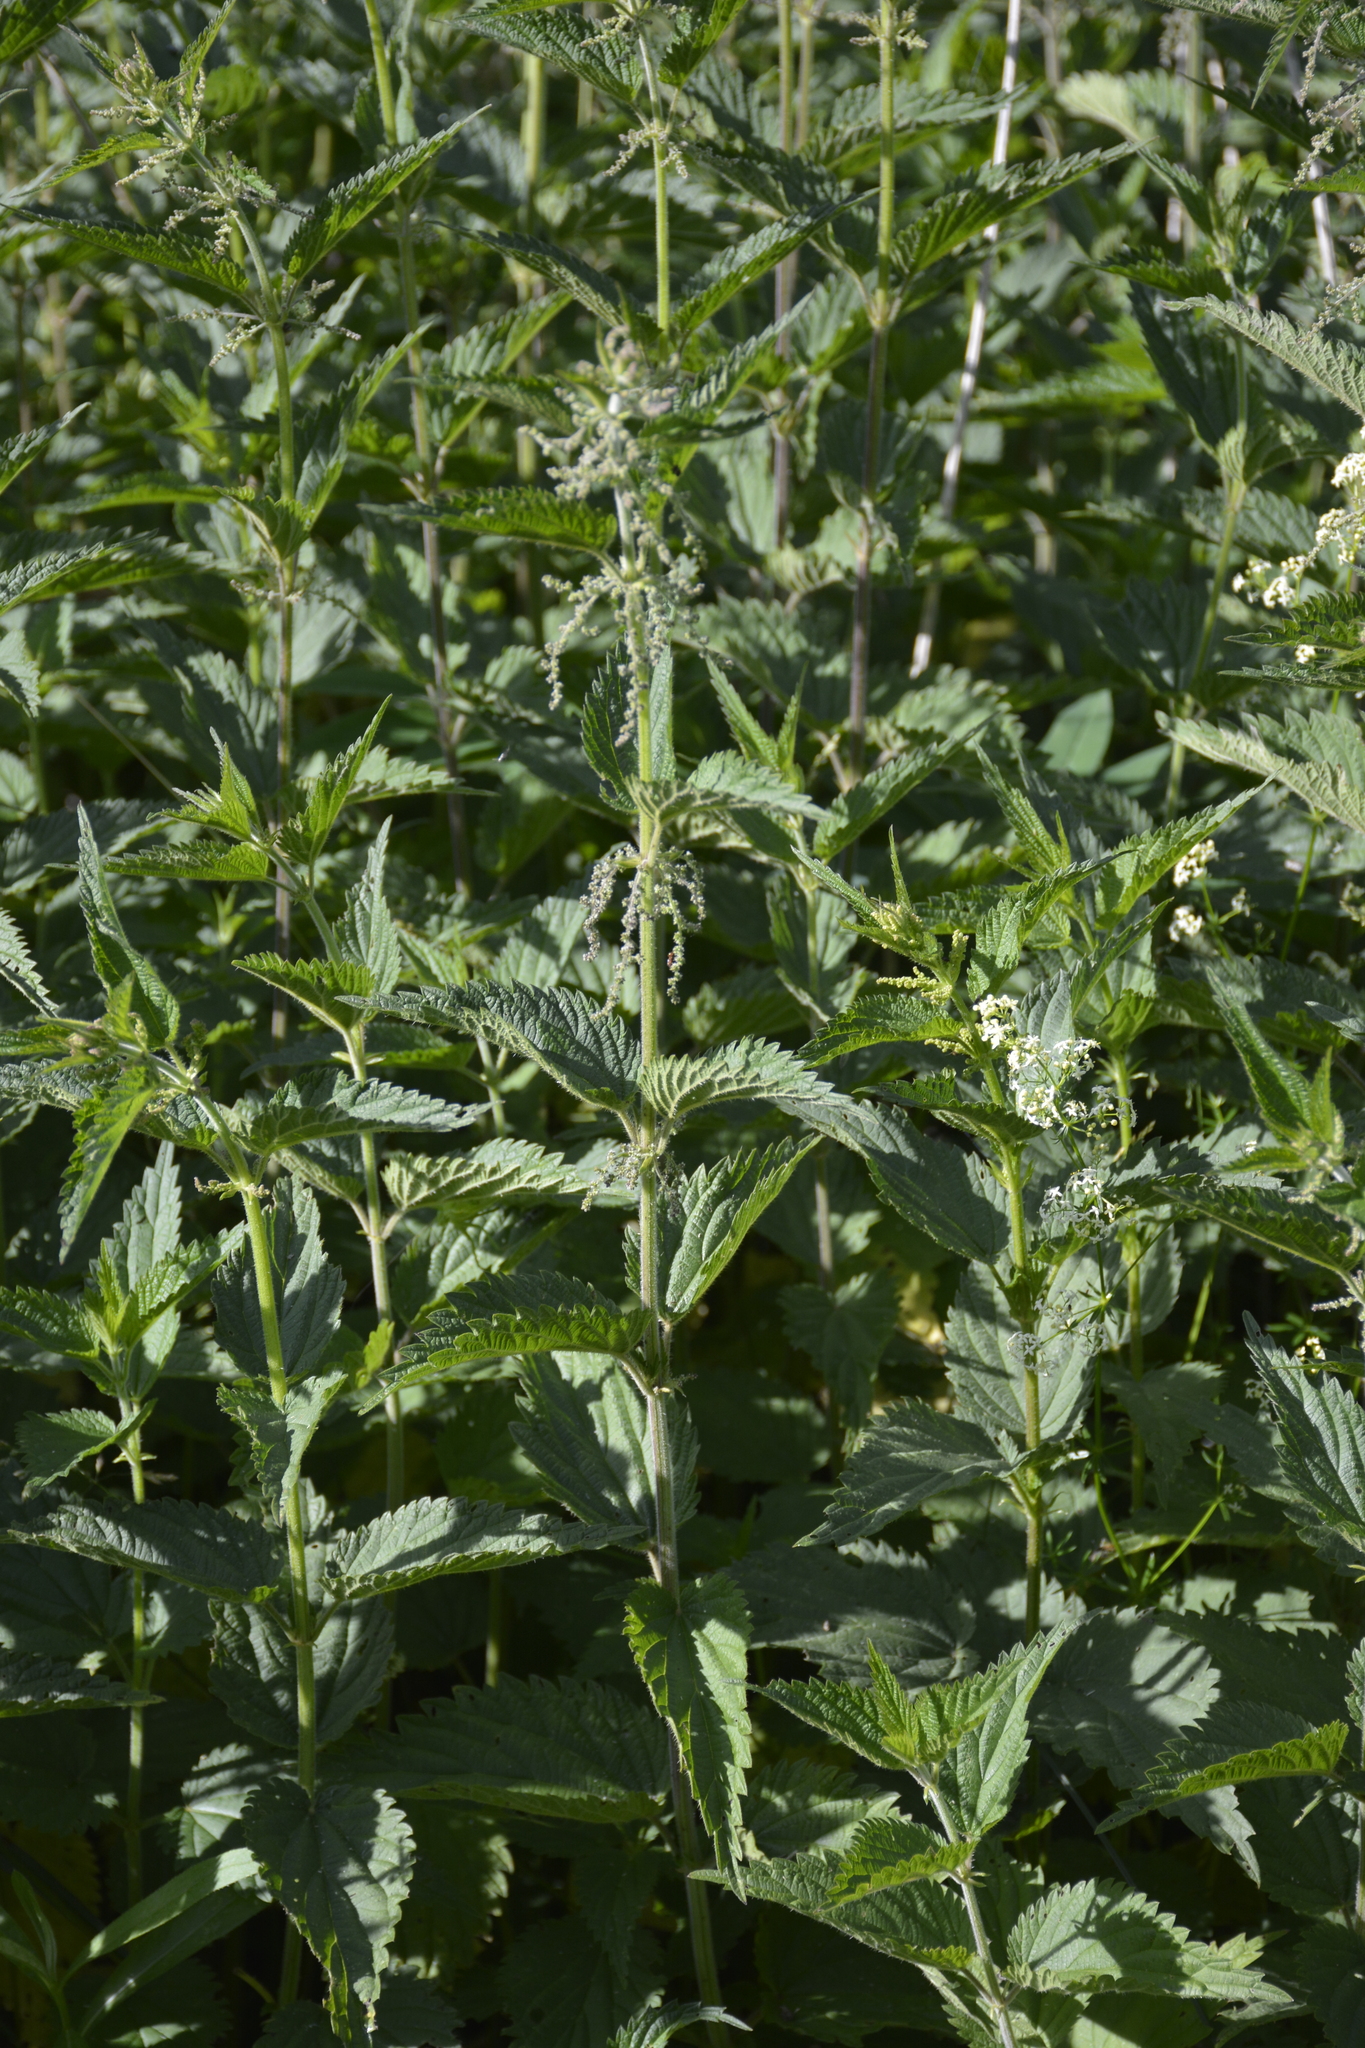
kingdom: Plantae
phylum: Tracheophyta
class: Magnoliopsida
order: Rosales
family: Urticaceae
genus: Urtica
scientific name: Urtica dioica
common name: Common nettle
